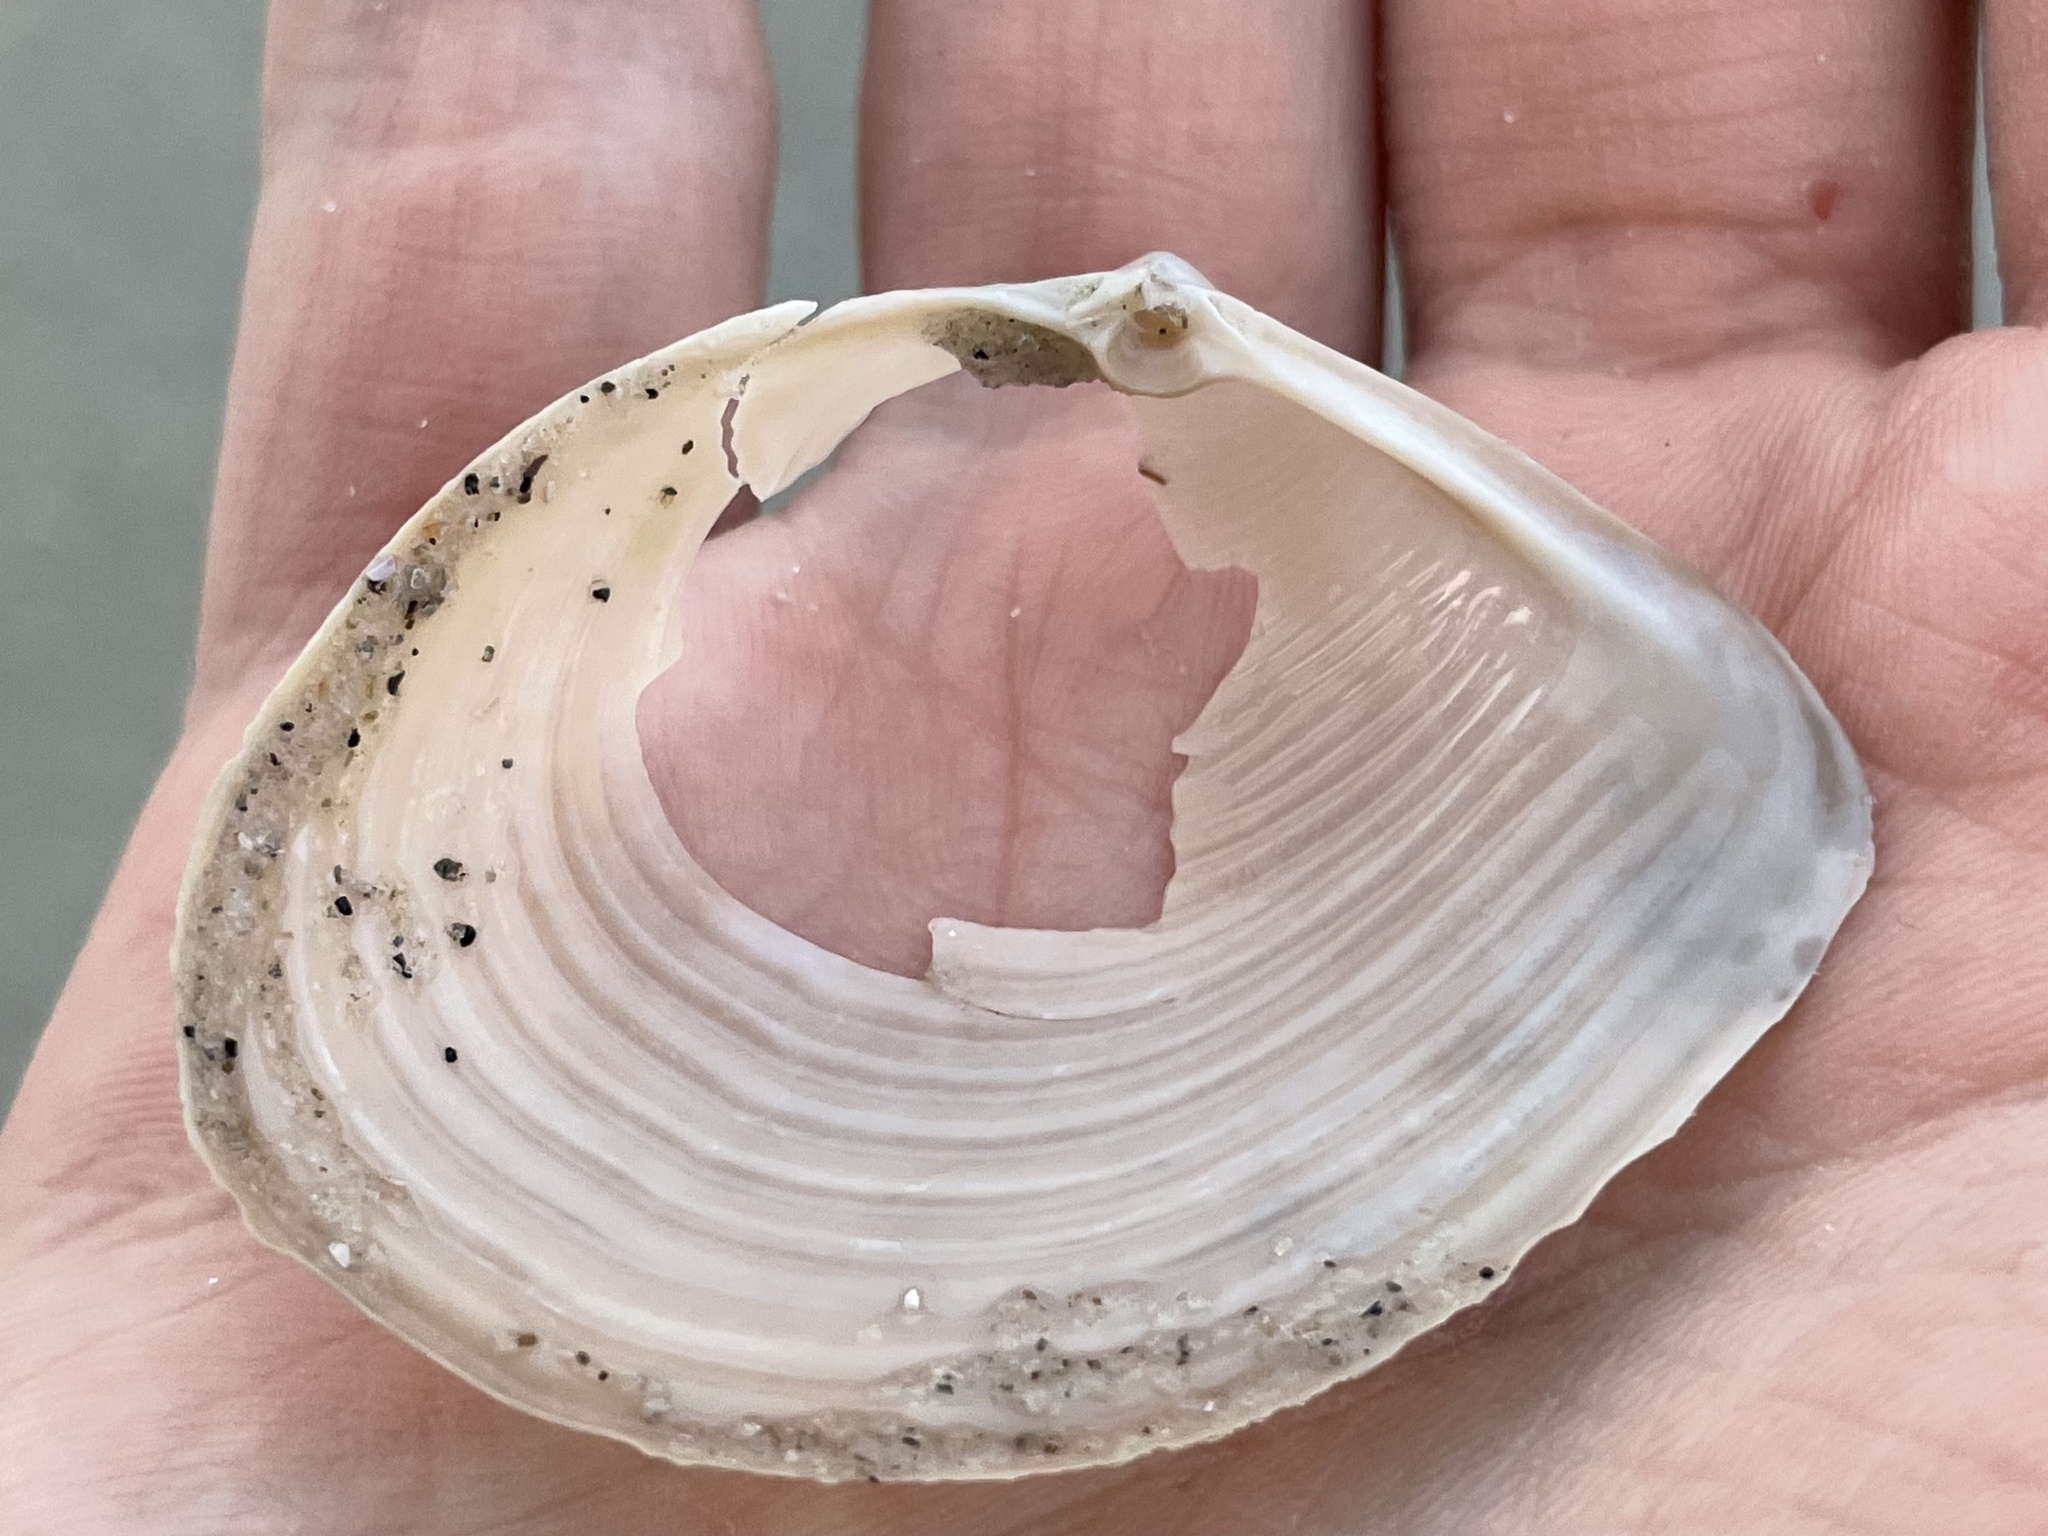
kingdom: Animalia
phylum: Mollusca
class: Bivalvia
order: Venerida
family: Anatinellidae
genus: Raeta
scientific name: Raeta plicatella
